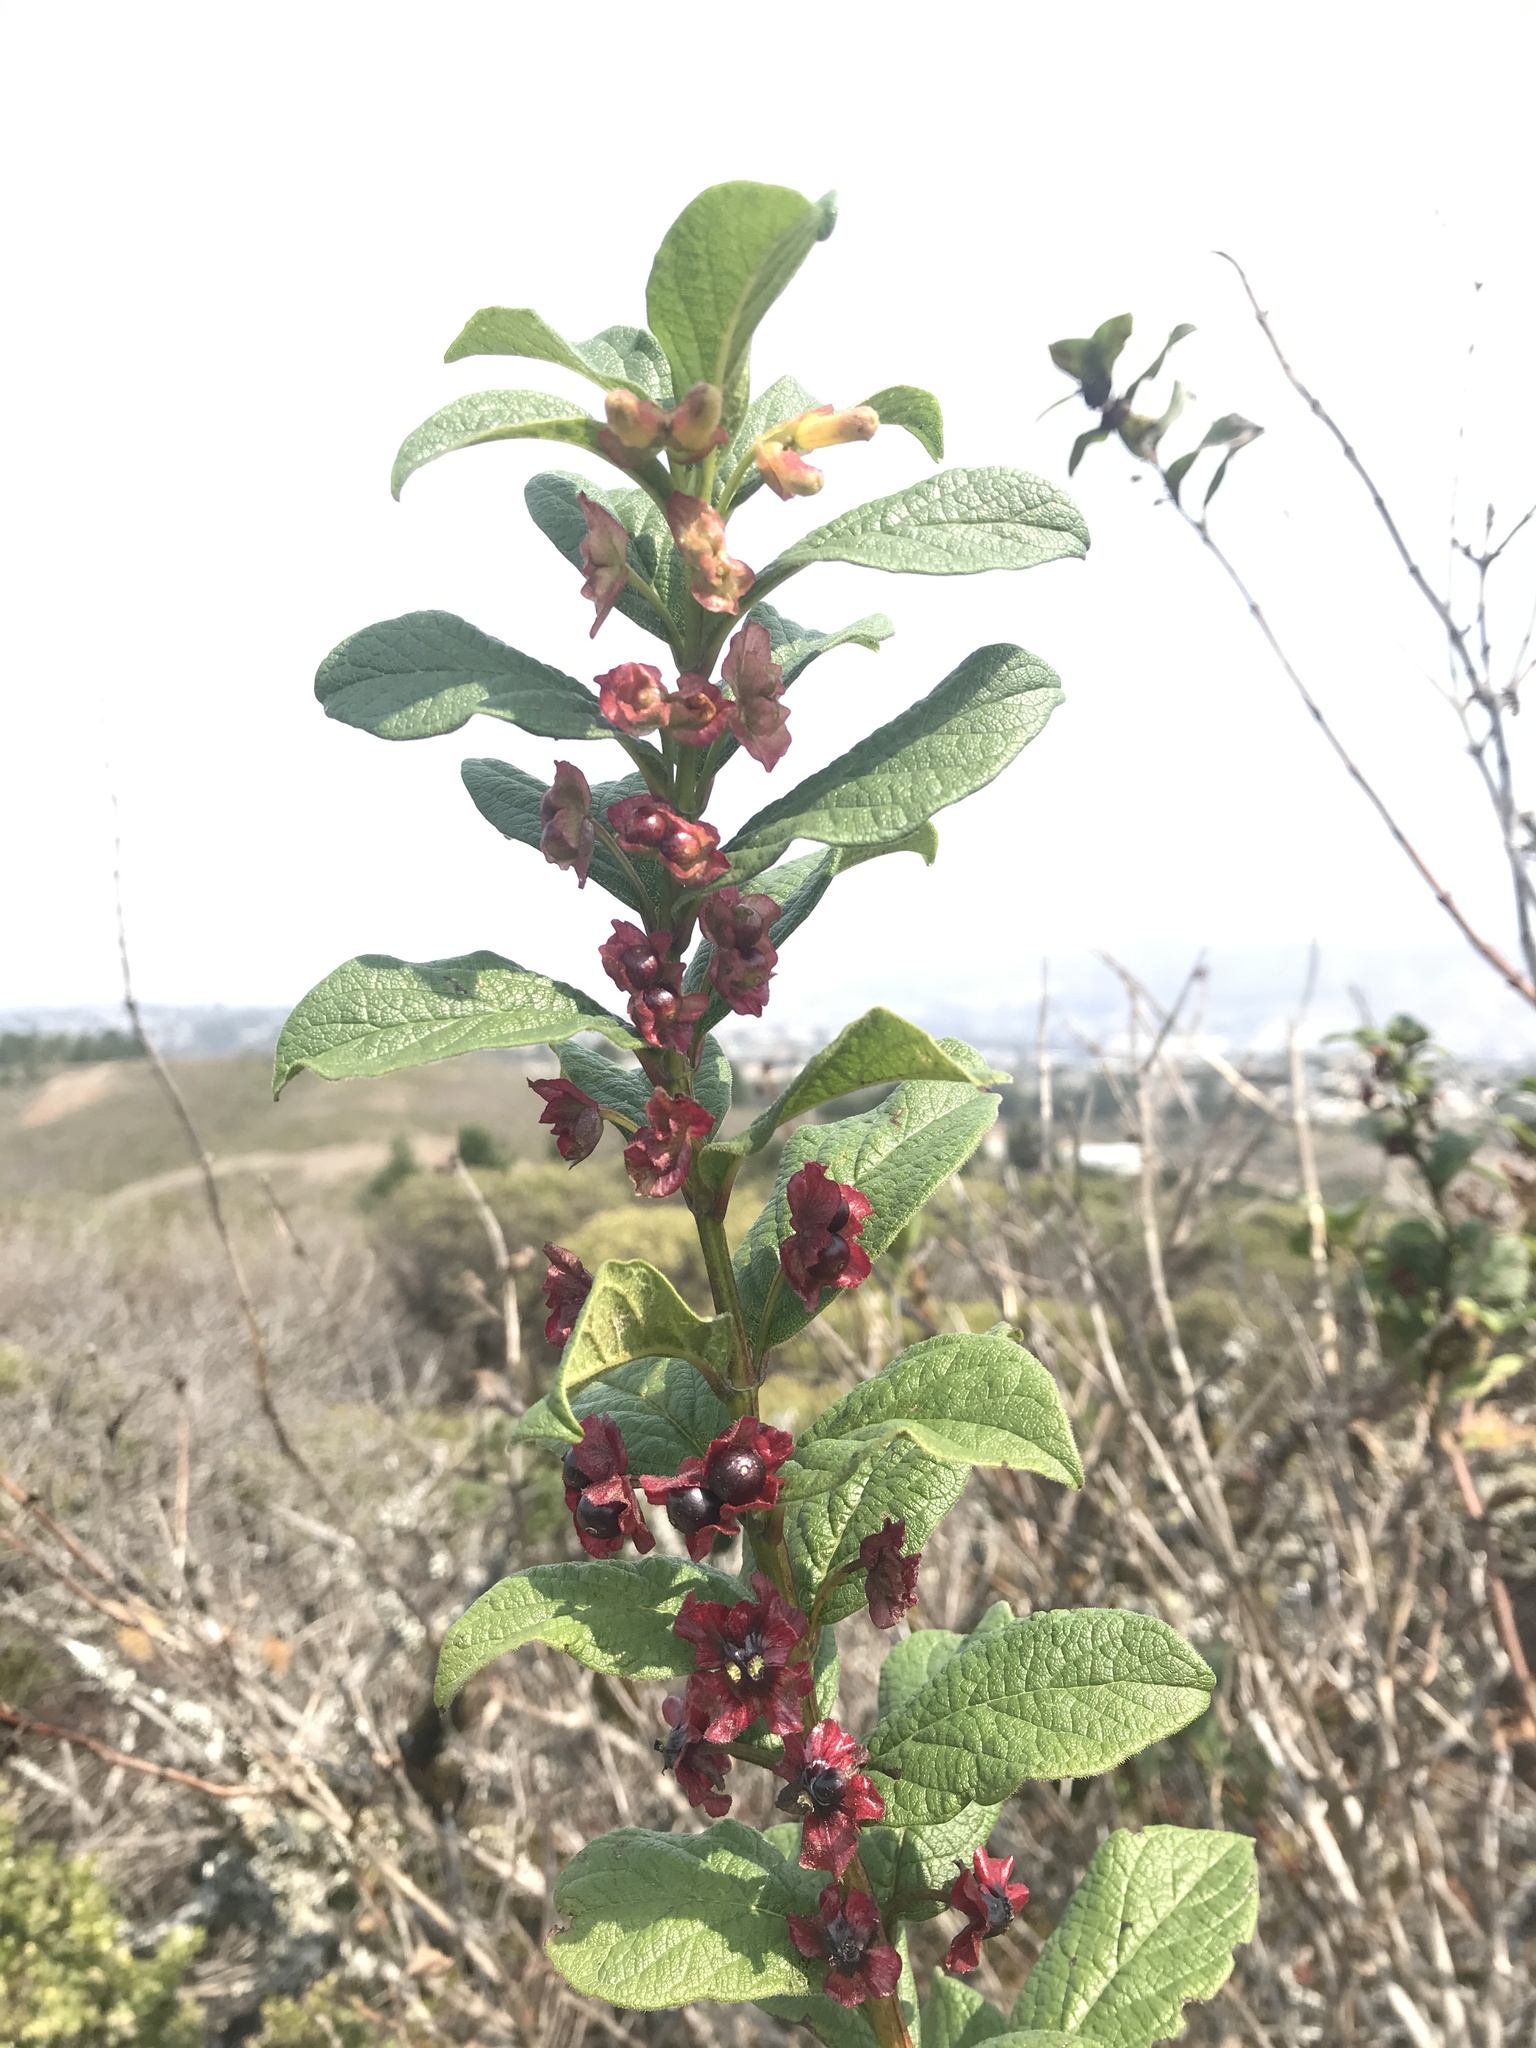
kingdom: Plantae
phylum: Tracheophyta
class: Magnoliopsida
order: Dipsacales
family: Caprifoliaceae
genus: Lonicera
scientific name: Lonicera involucrata
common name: Californian honeysuckle
